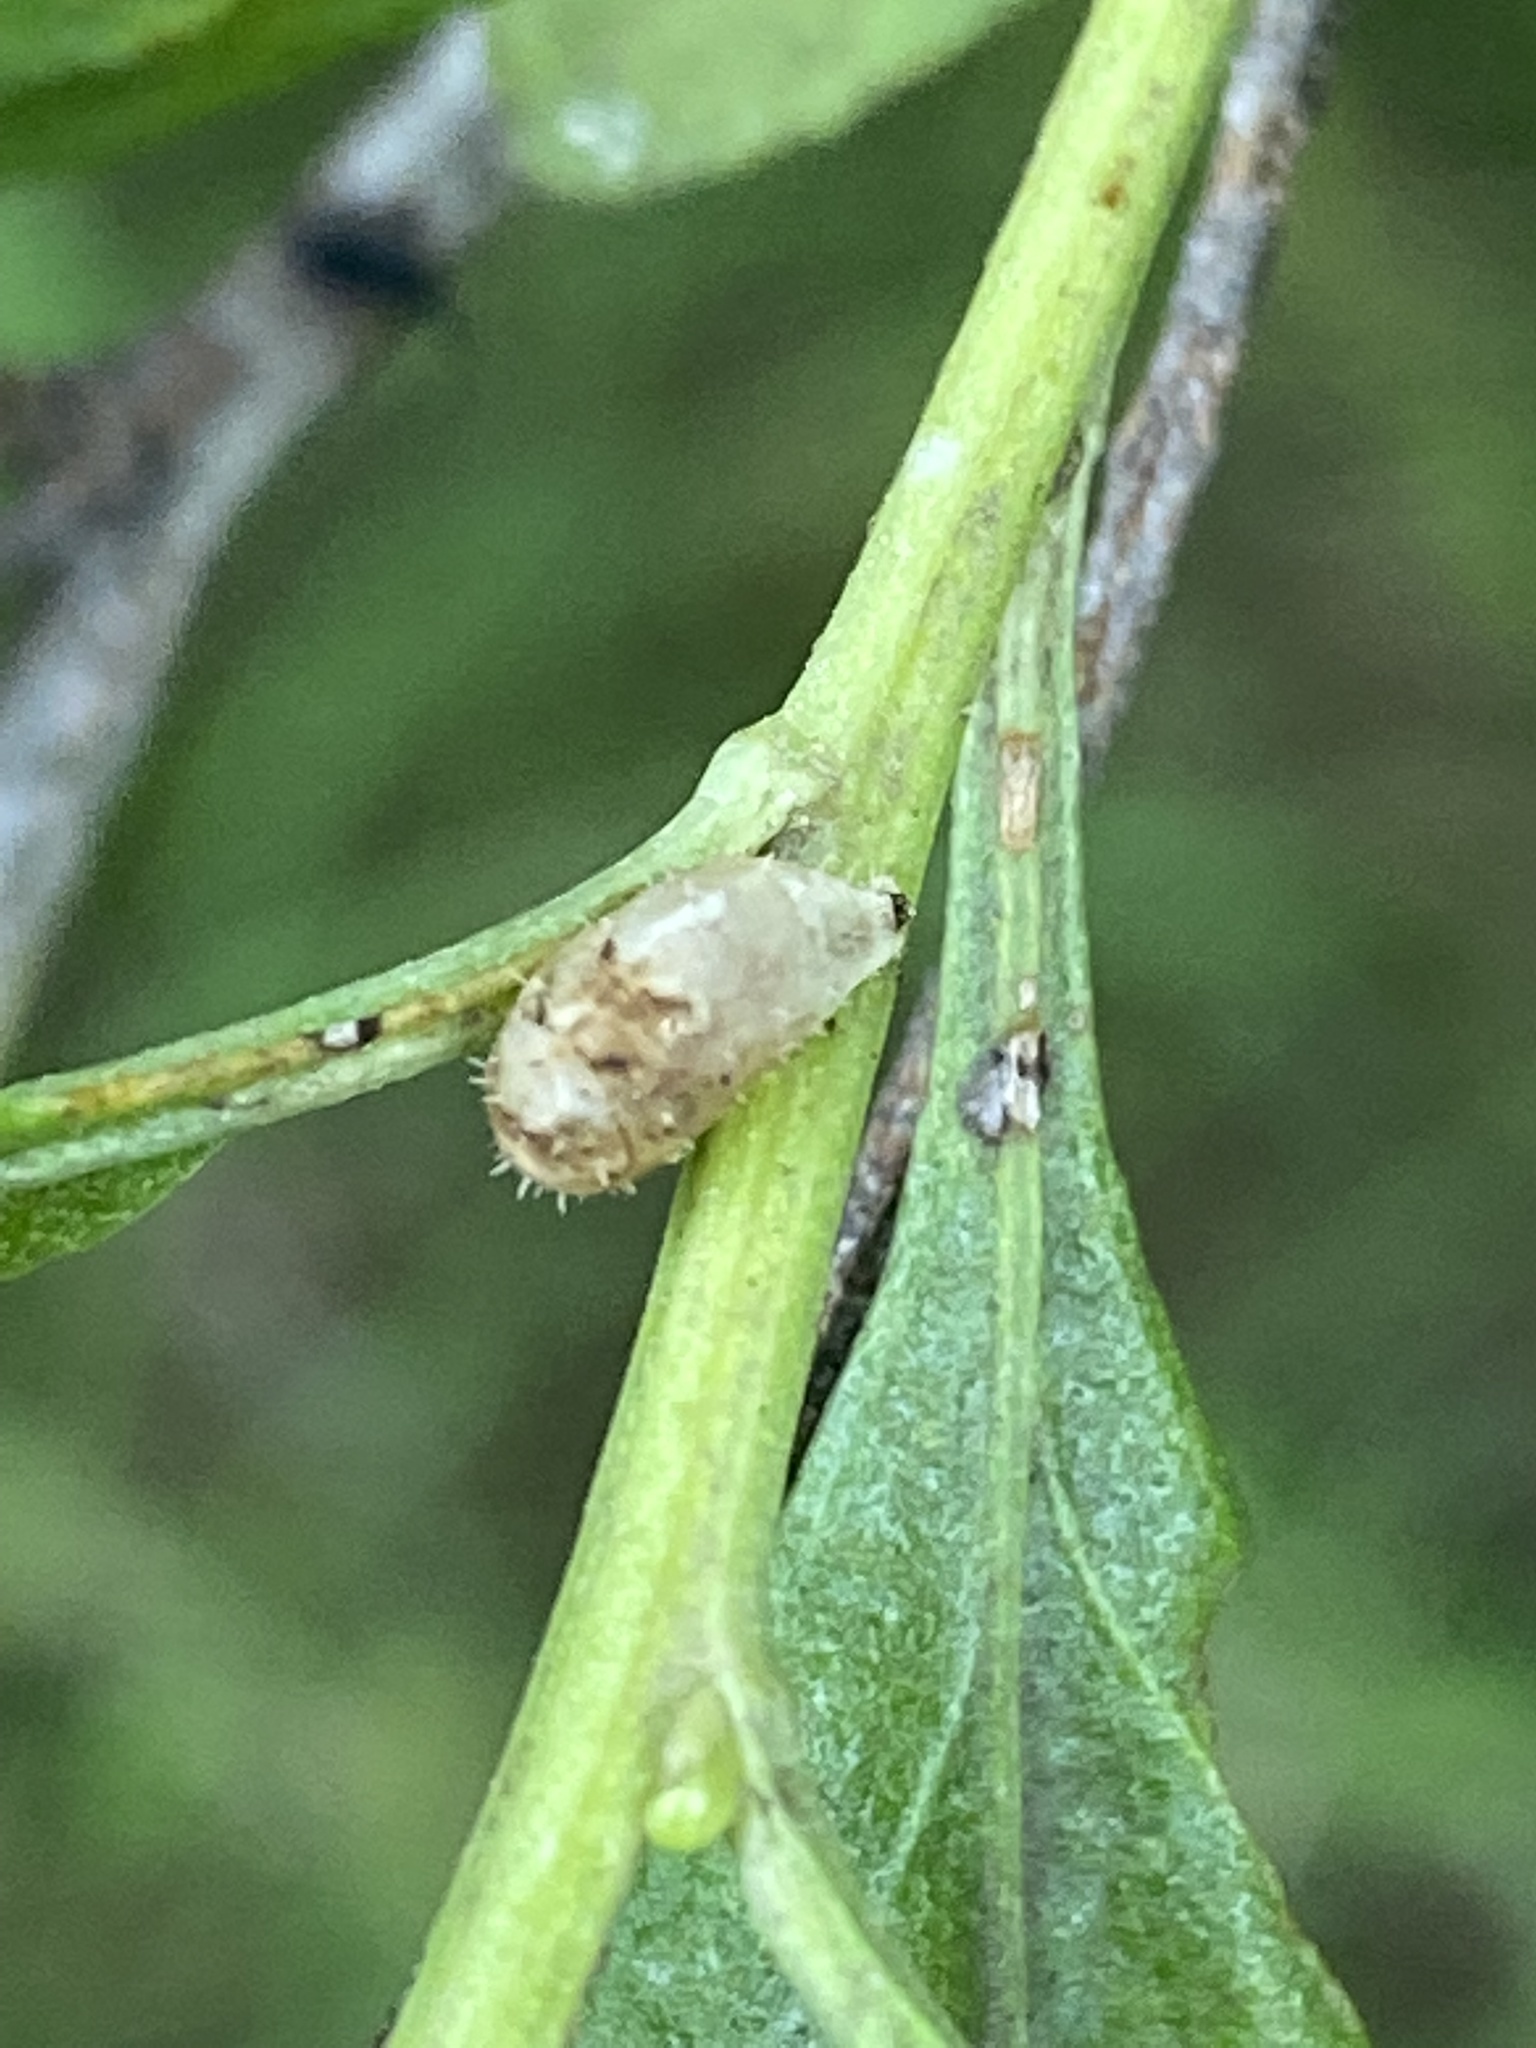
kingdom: Animalia
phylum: Arthropoda
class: Insecta
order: Diptera
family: Syrphidae
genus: Dioprosopa
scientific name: Dioprosopa clavatus
